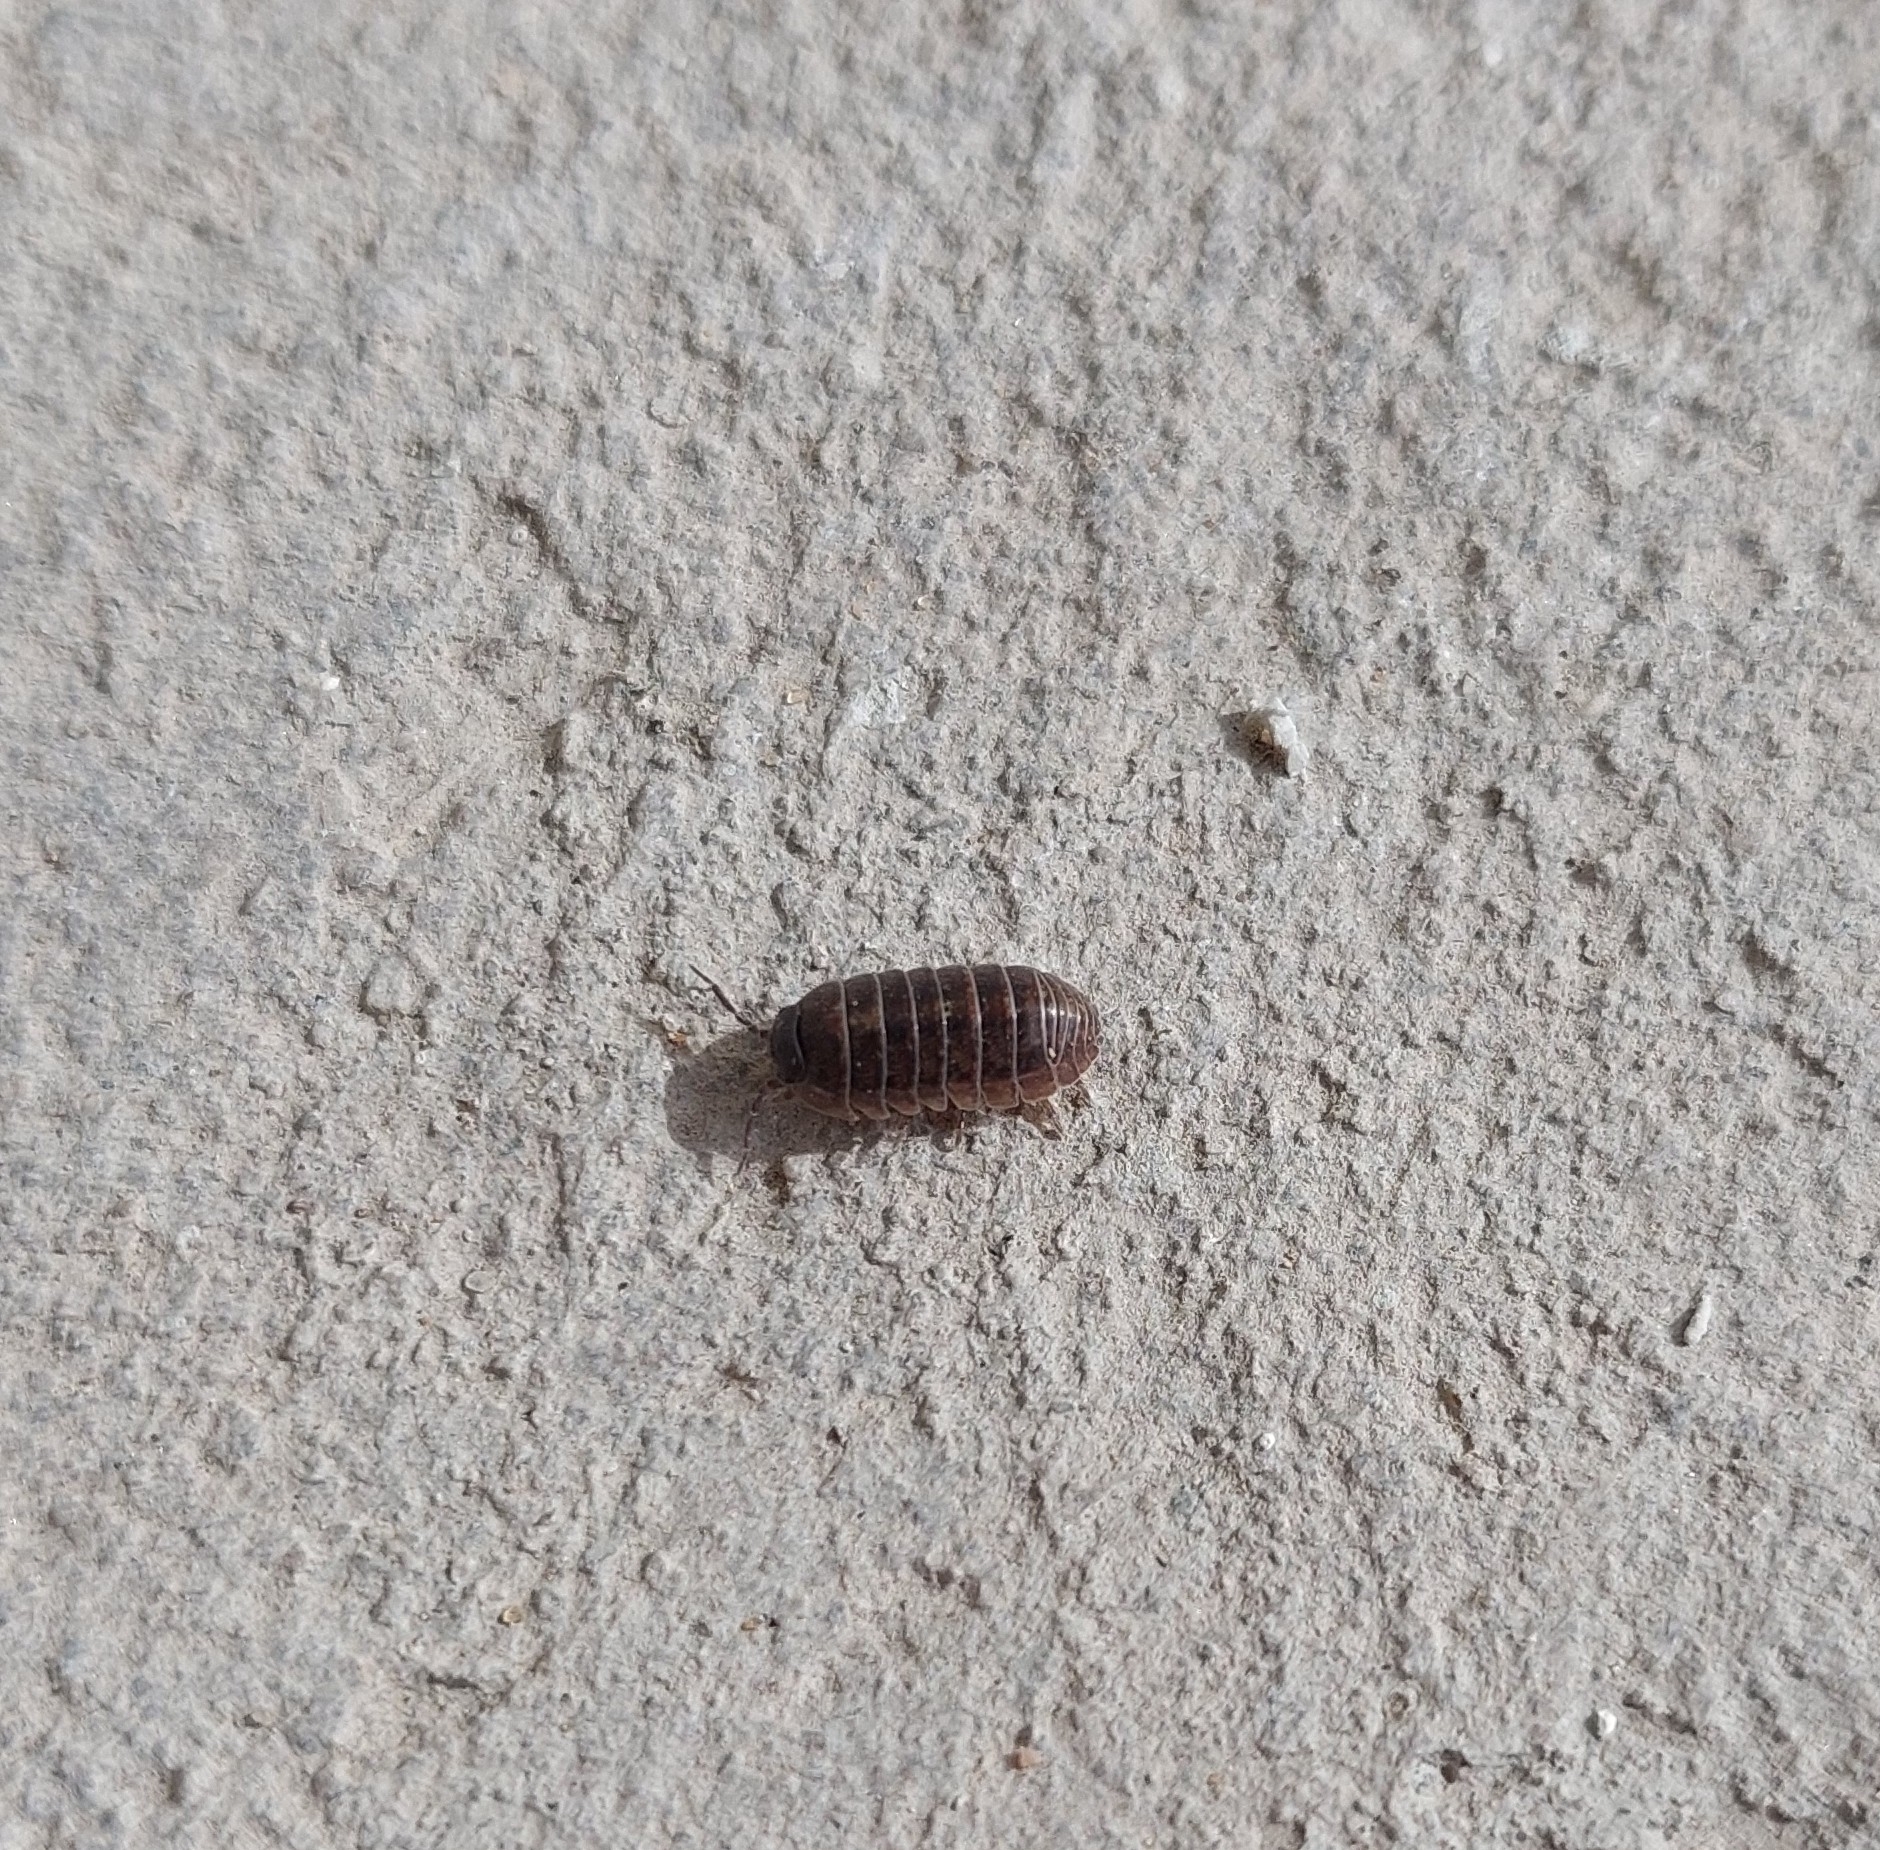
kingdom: Animalia
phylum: Arthropoda
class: Malacostraca
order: Isopoda
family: Armadillidiidae
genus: Armadillidium
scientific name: Armadillidium vulgare
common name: Common pill woodlouse
